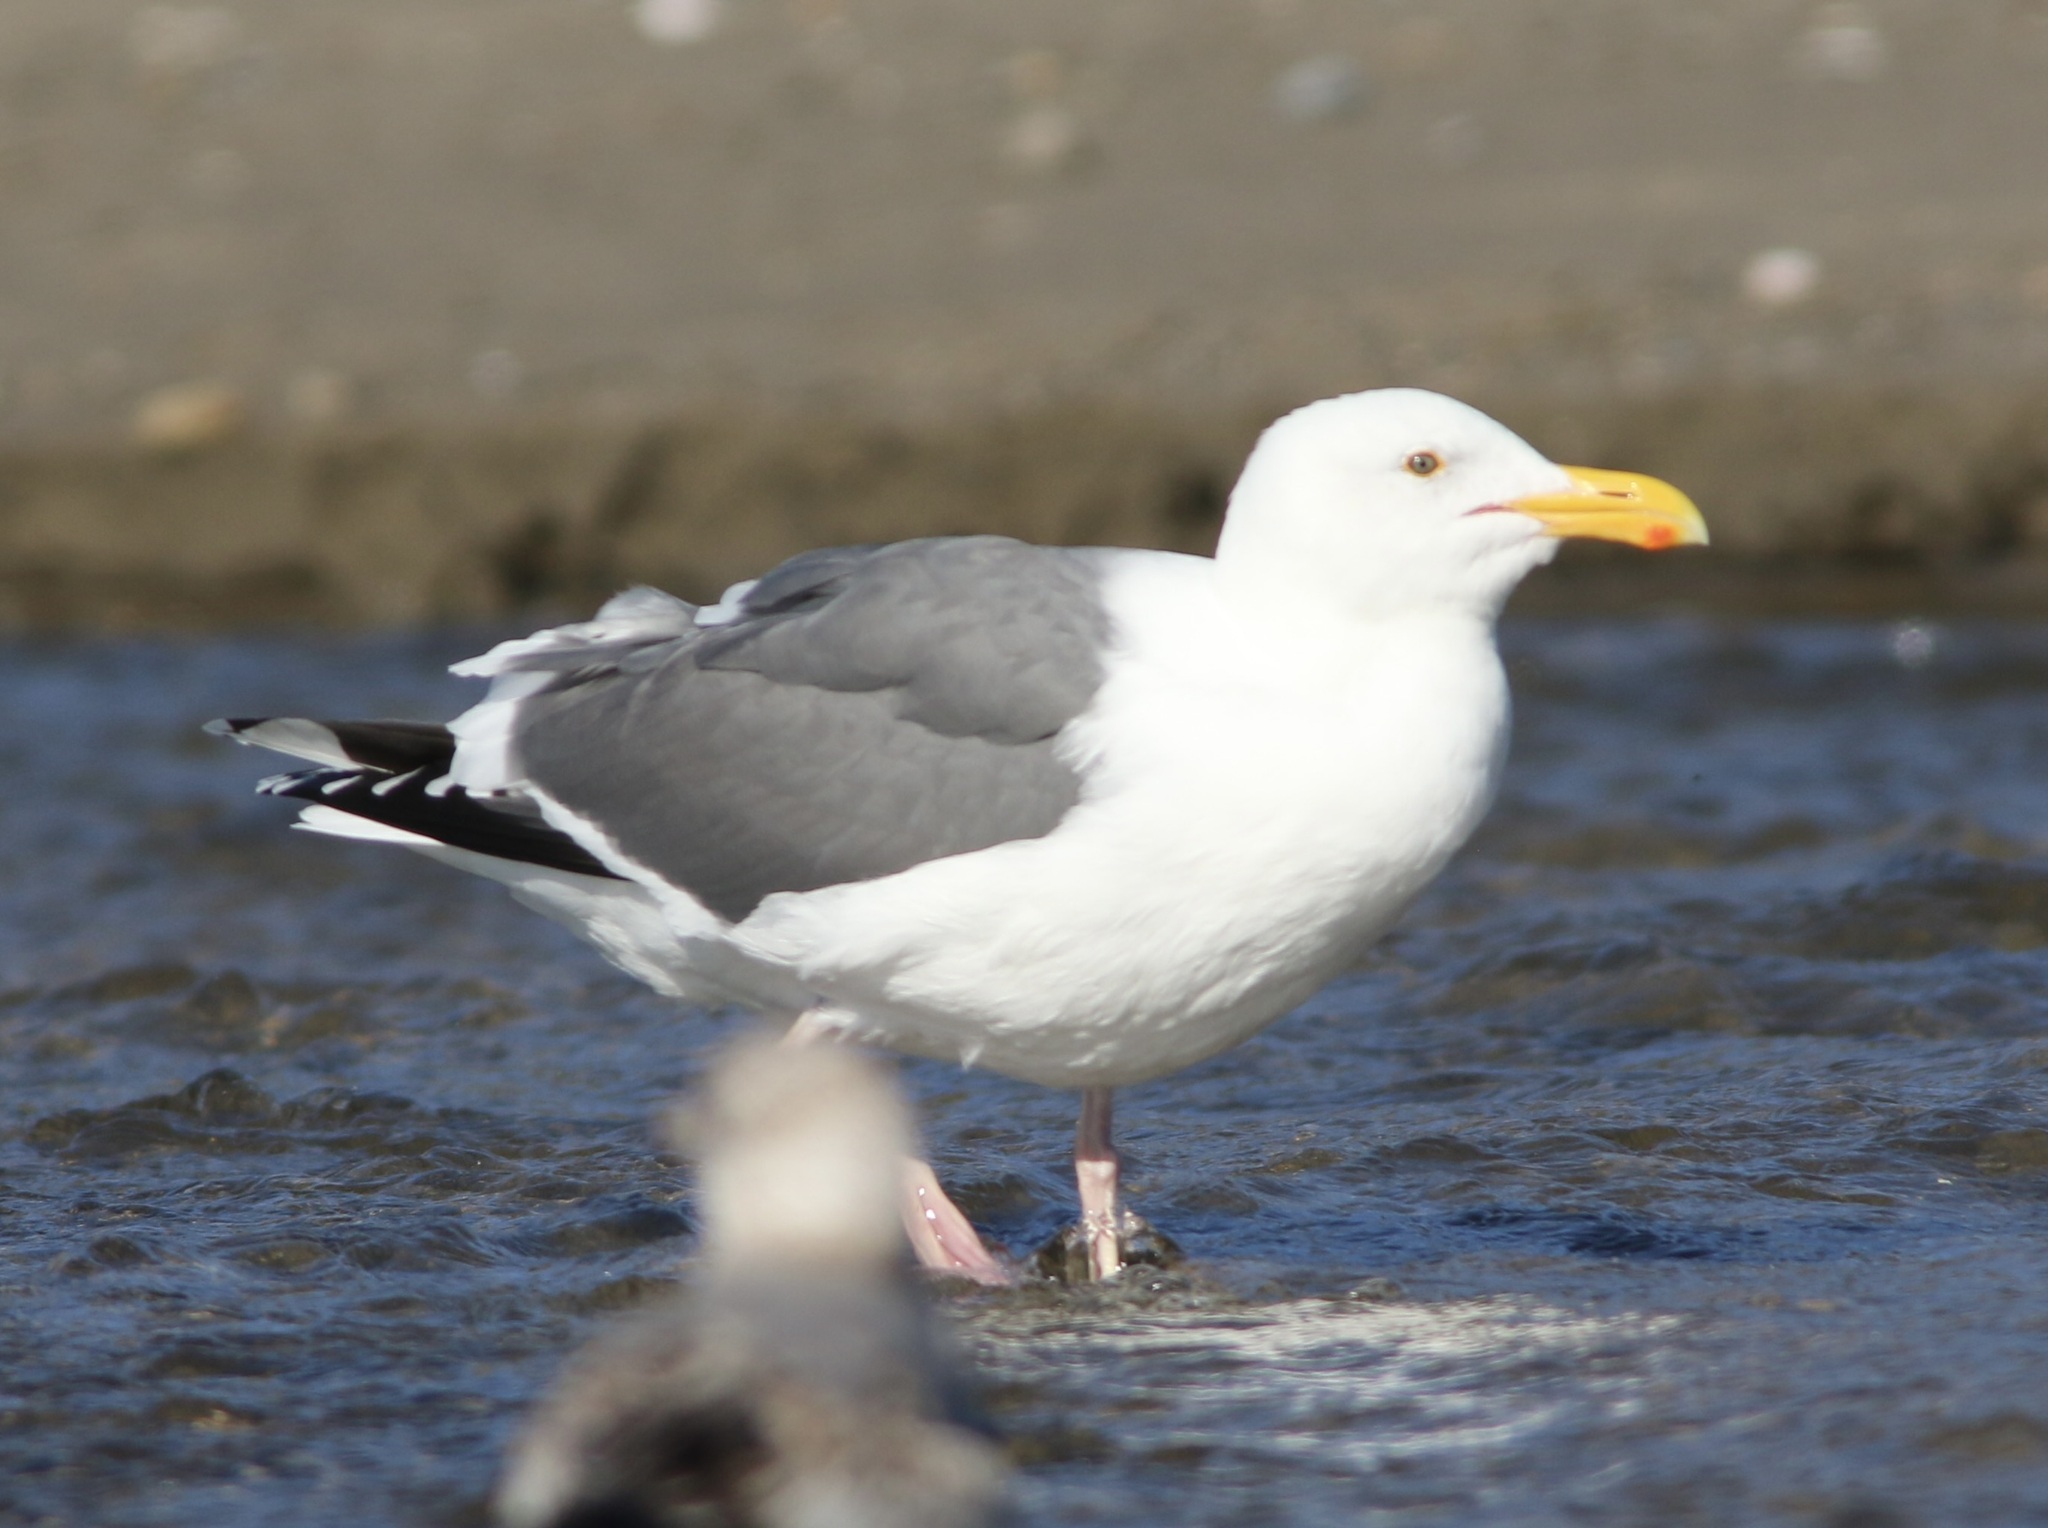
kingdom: Animalia
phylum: Chordata
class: Aves
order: Charadriiformes
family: Laridae
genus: Larus
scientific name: Larus occidentalis
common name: Western gull
